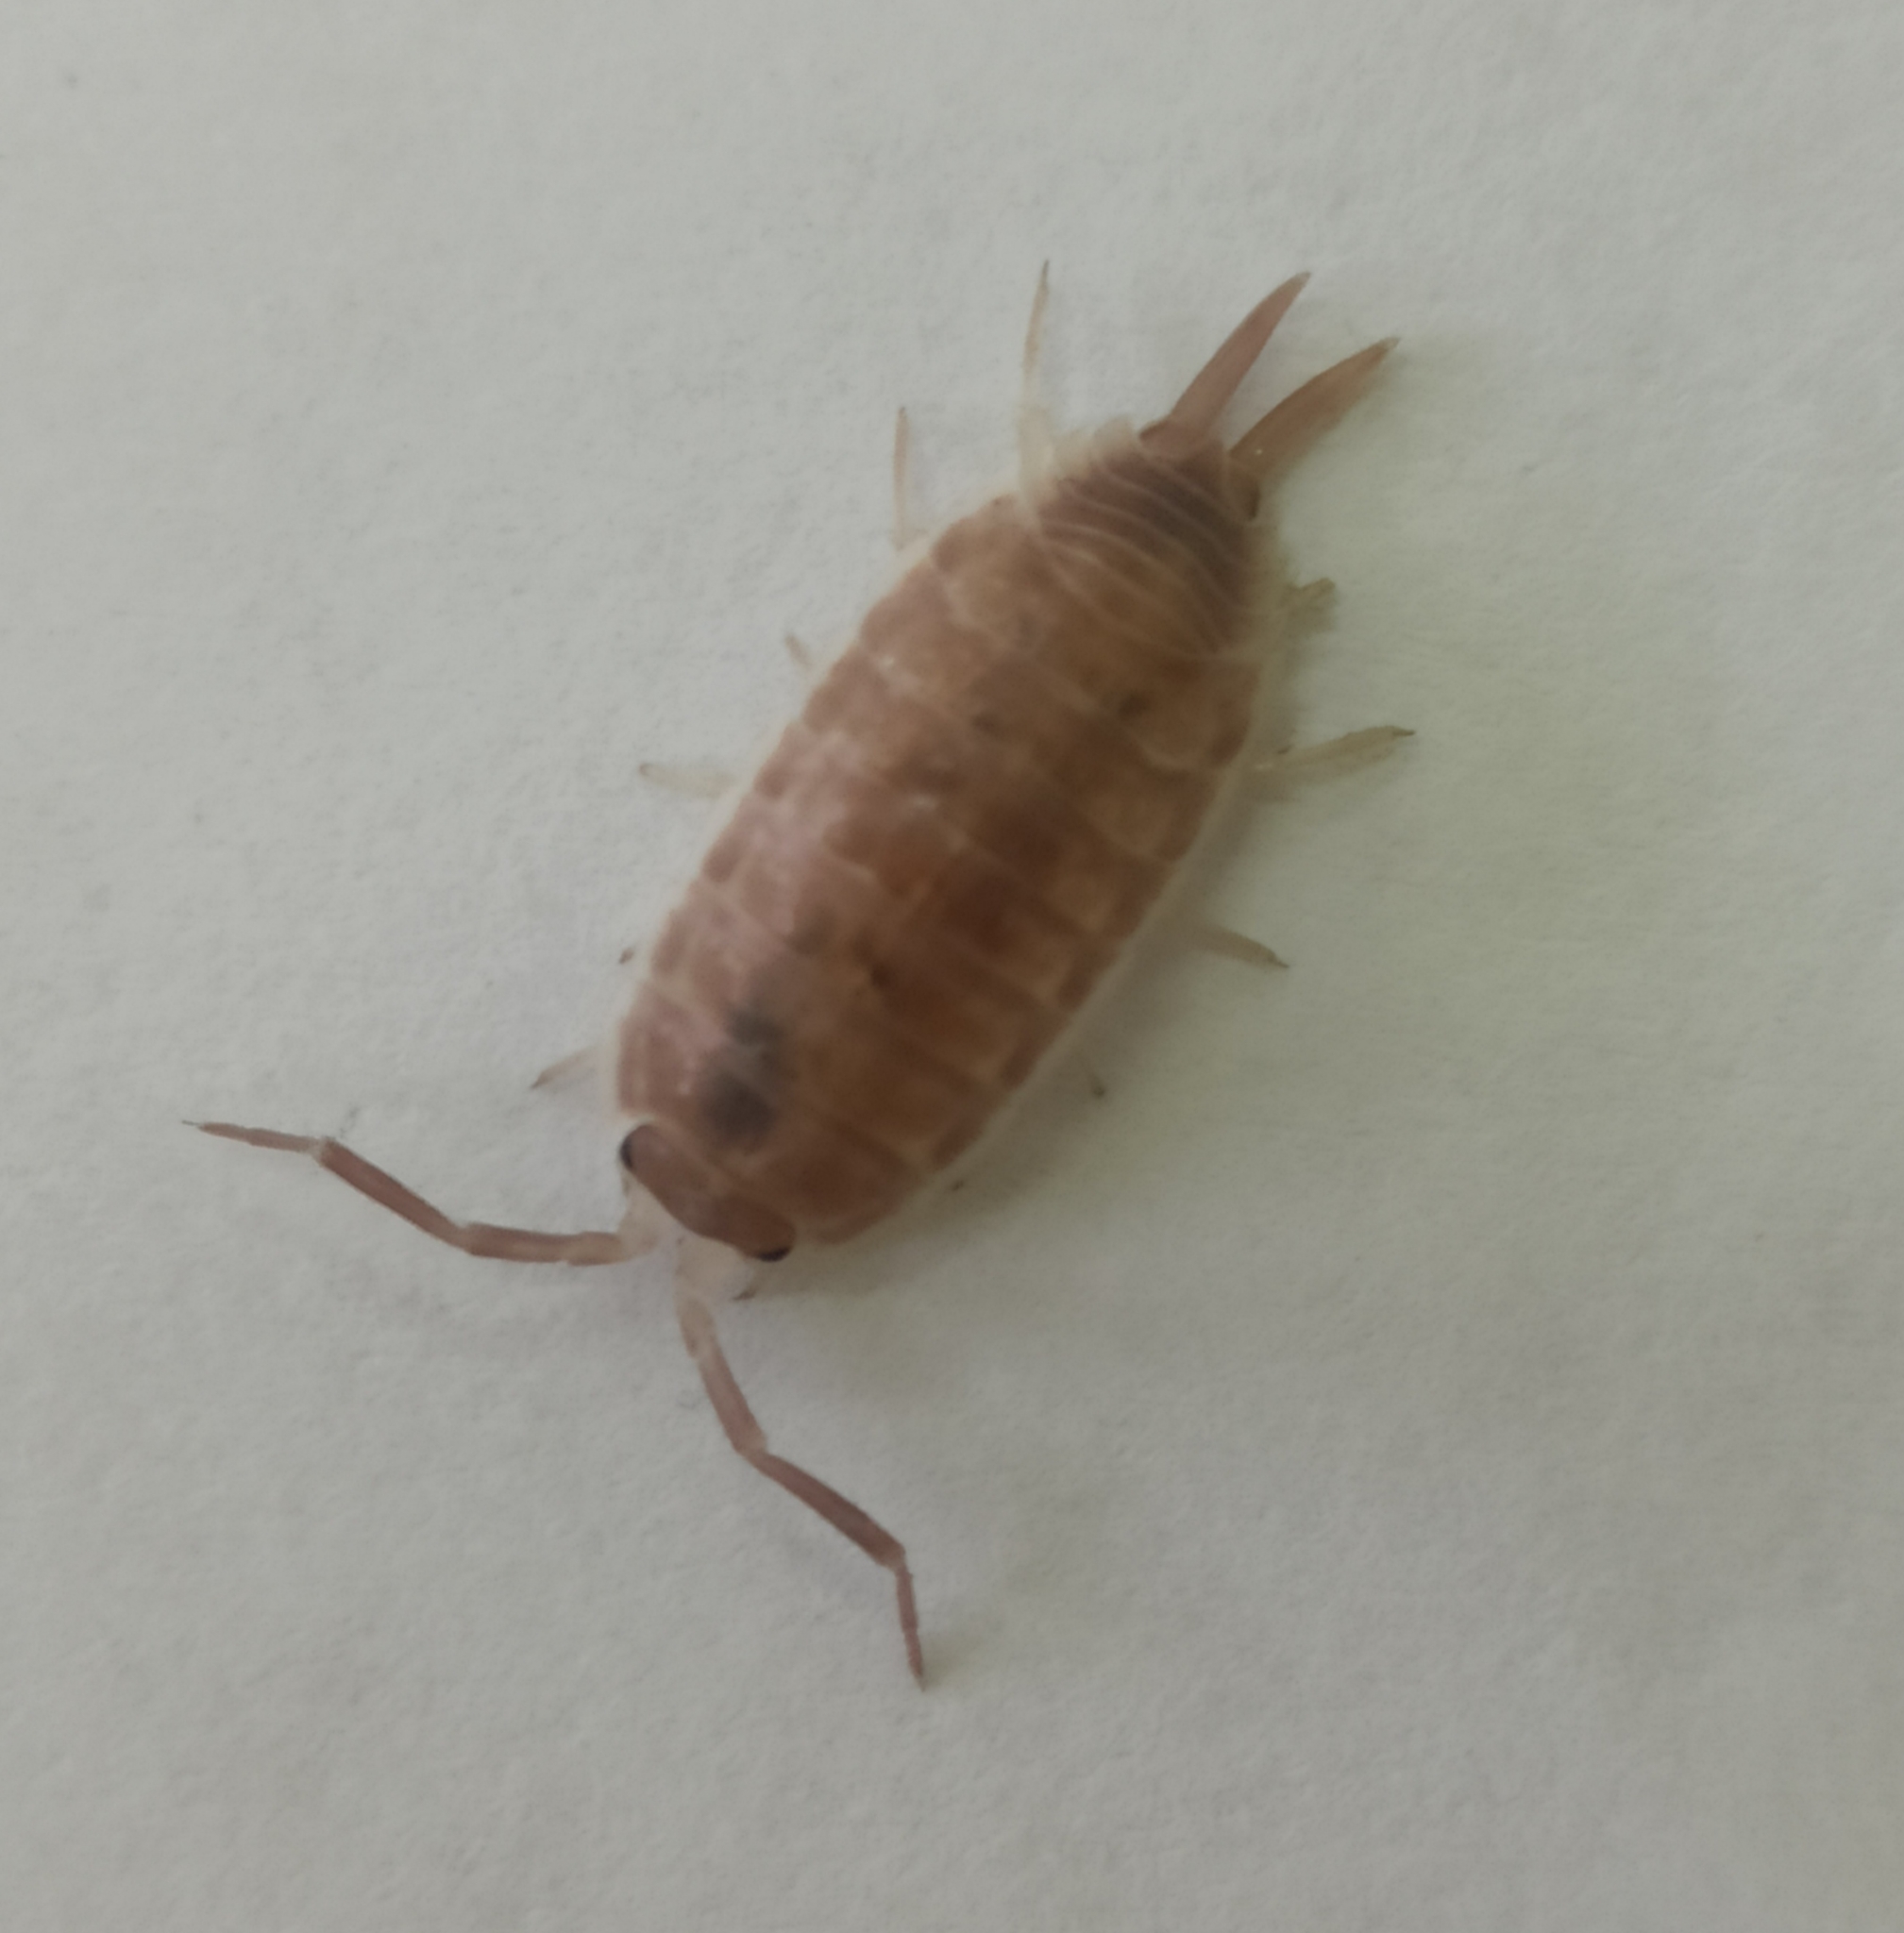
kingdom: Animalia
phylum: Arthropoda
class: Malacostraca
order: Isopoda
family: Agnaridae
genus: Protracheoniscus
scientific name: Protracheoniscus
